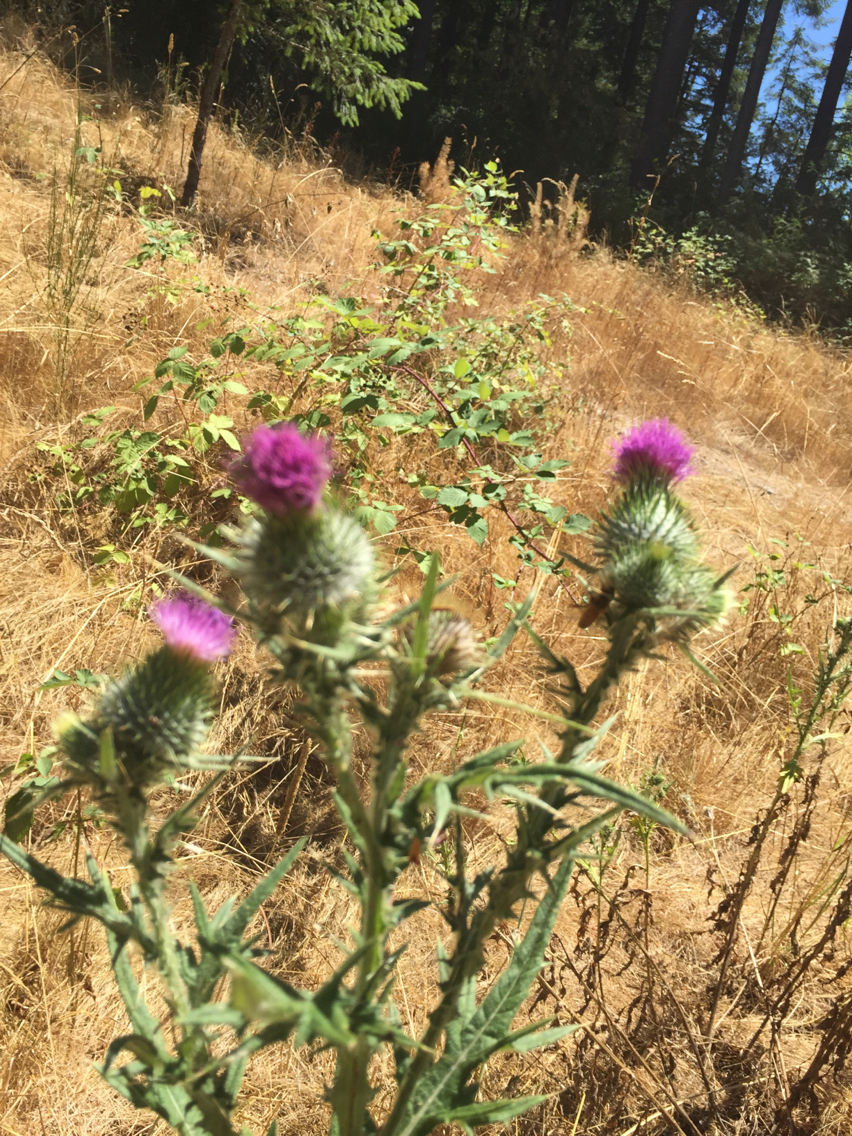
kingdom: Plantae
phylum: Tracheophyta
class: Magnoliopsida
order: Asterales
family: Asteraceae
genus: Cirsium
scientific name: Cirsium vulgare
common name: Bull thistle
